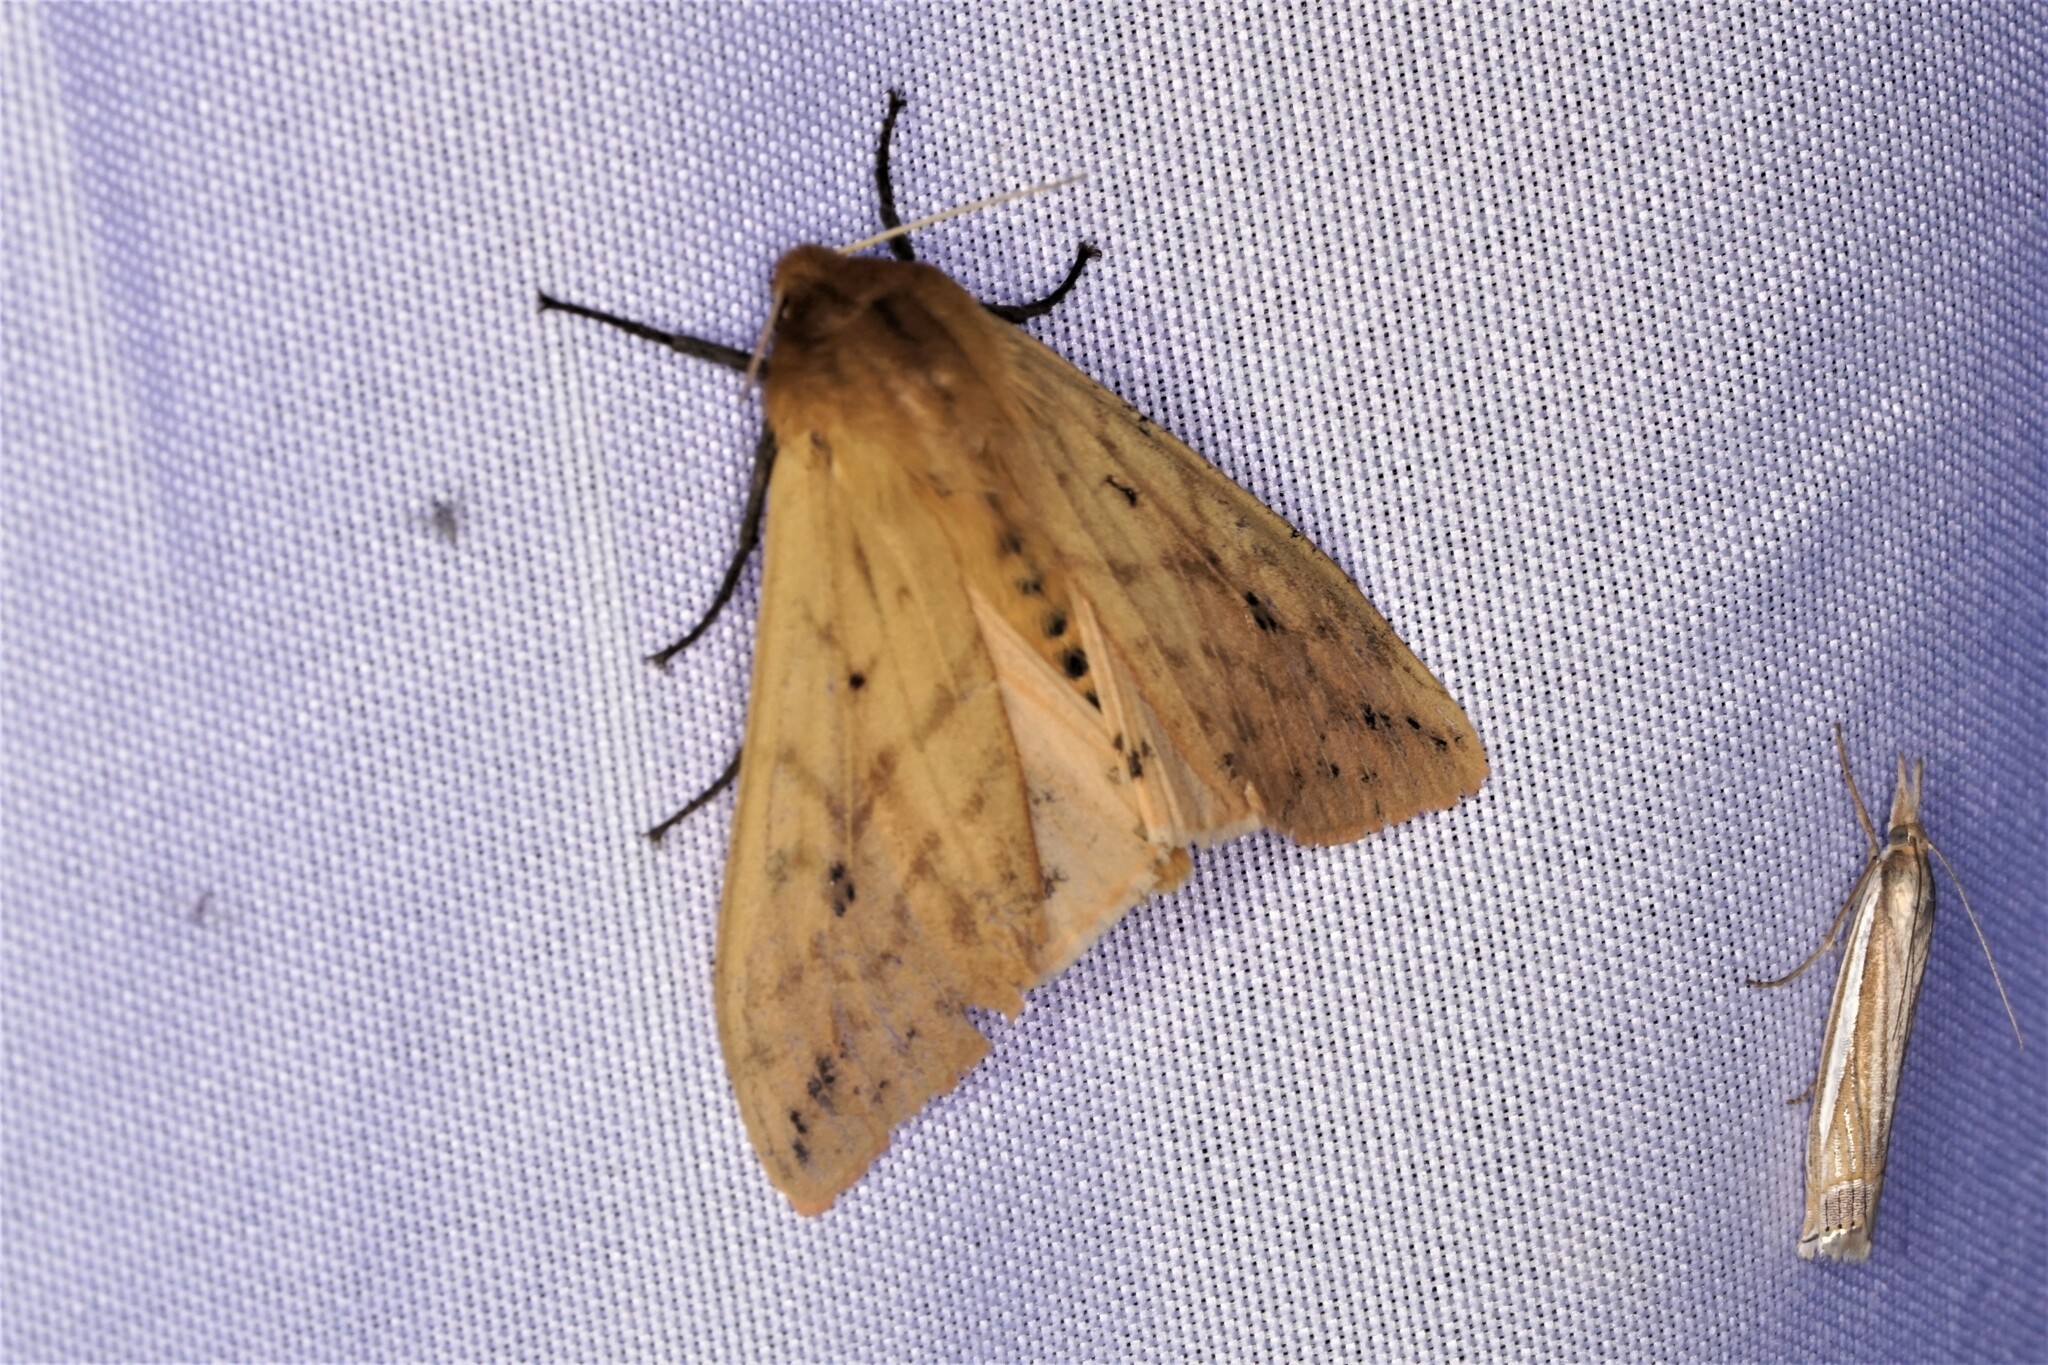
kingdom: Animalia
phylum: Arthropoda
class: Insecta
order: Lepidoptera
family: Erebidae
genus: Pyrrharctia
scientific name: Pyrrharctia isabella
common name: Isabella tiger moth
